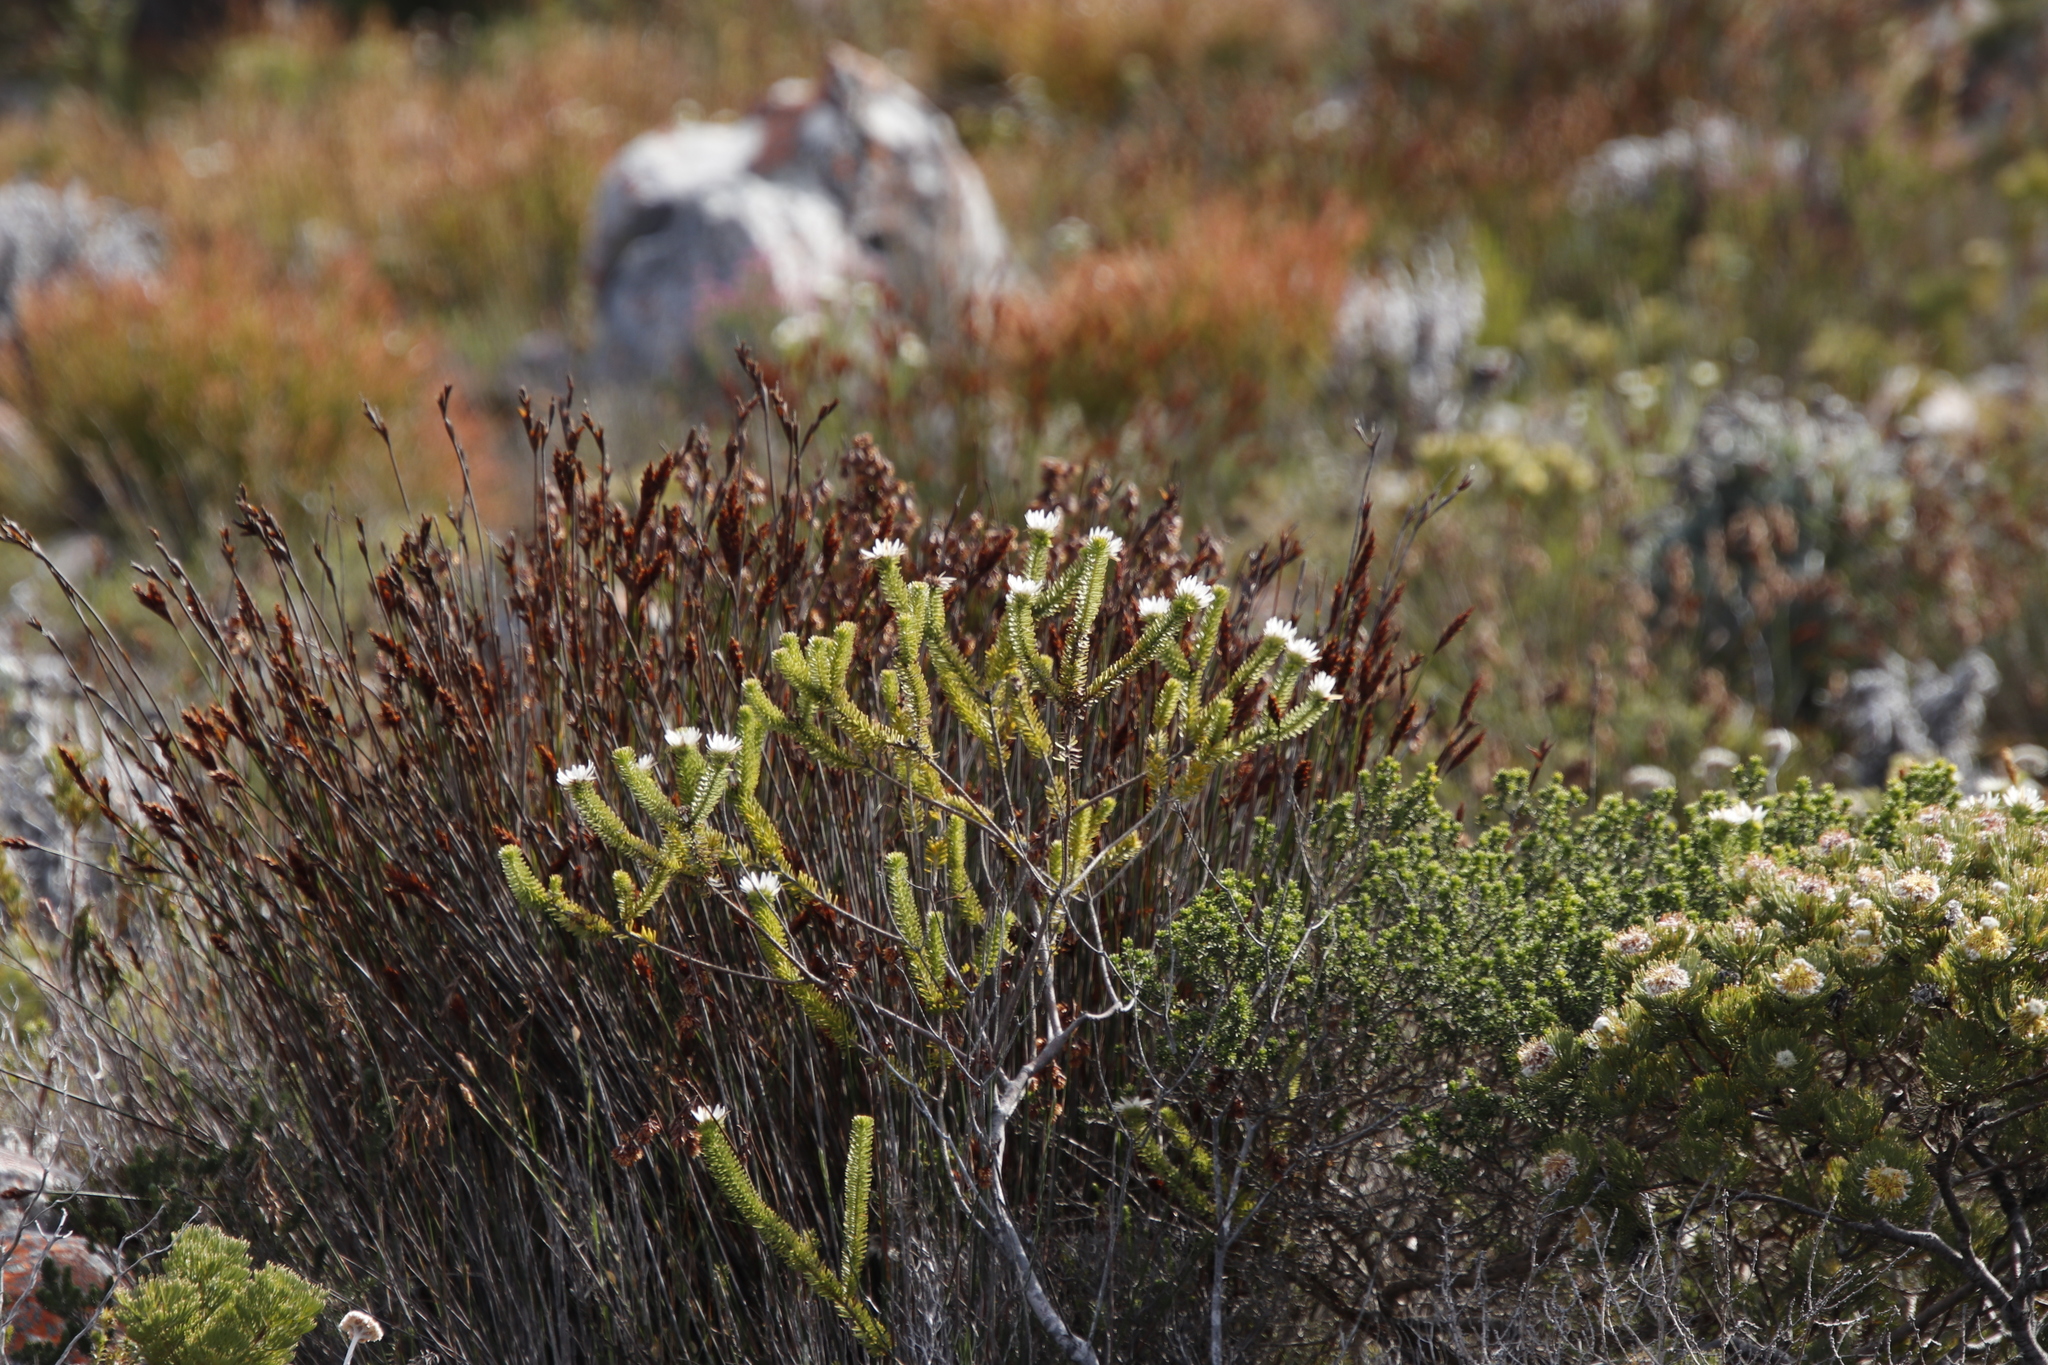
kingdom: Plantae
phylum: Tracheophyta
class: Magnoliopsida
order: Bruniales
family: Bruniaceae
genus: Staavia
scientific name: Staavia dodii
